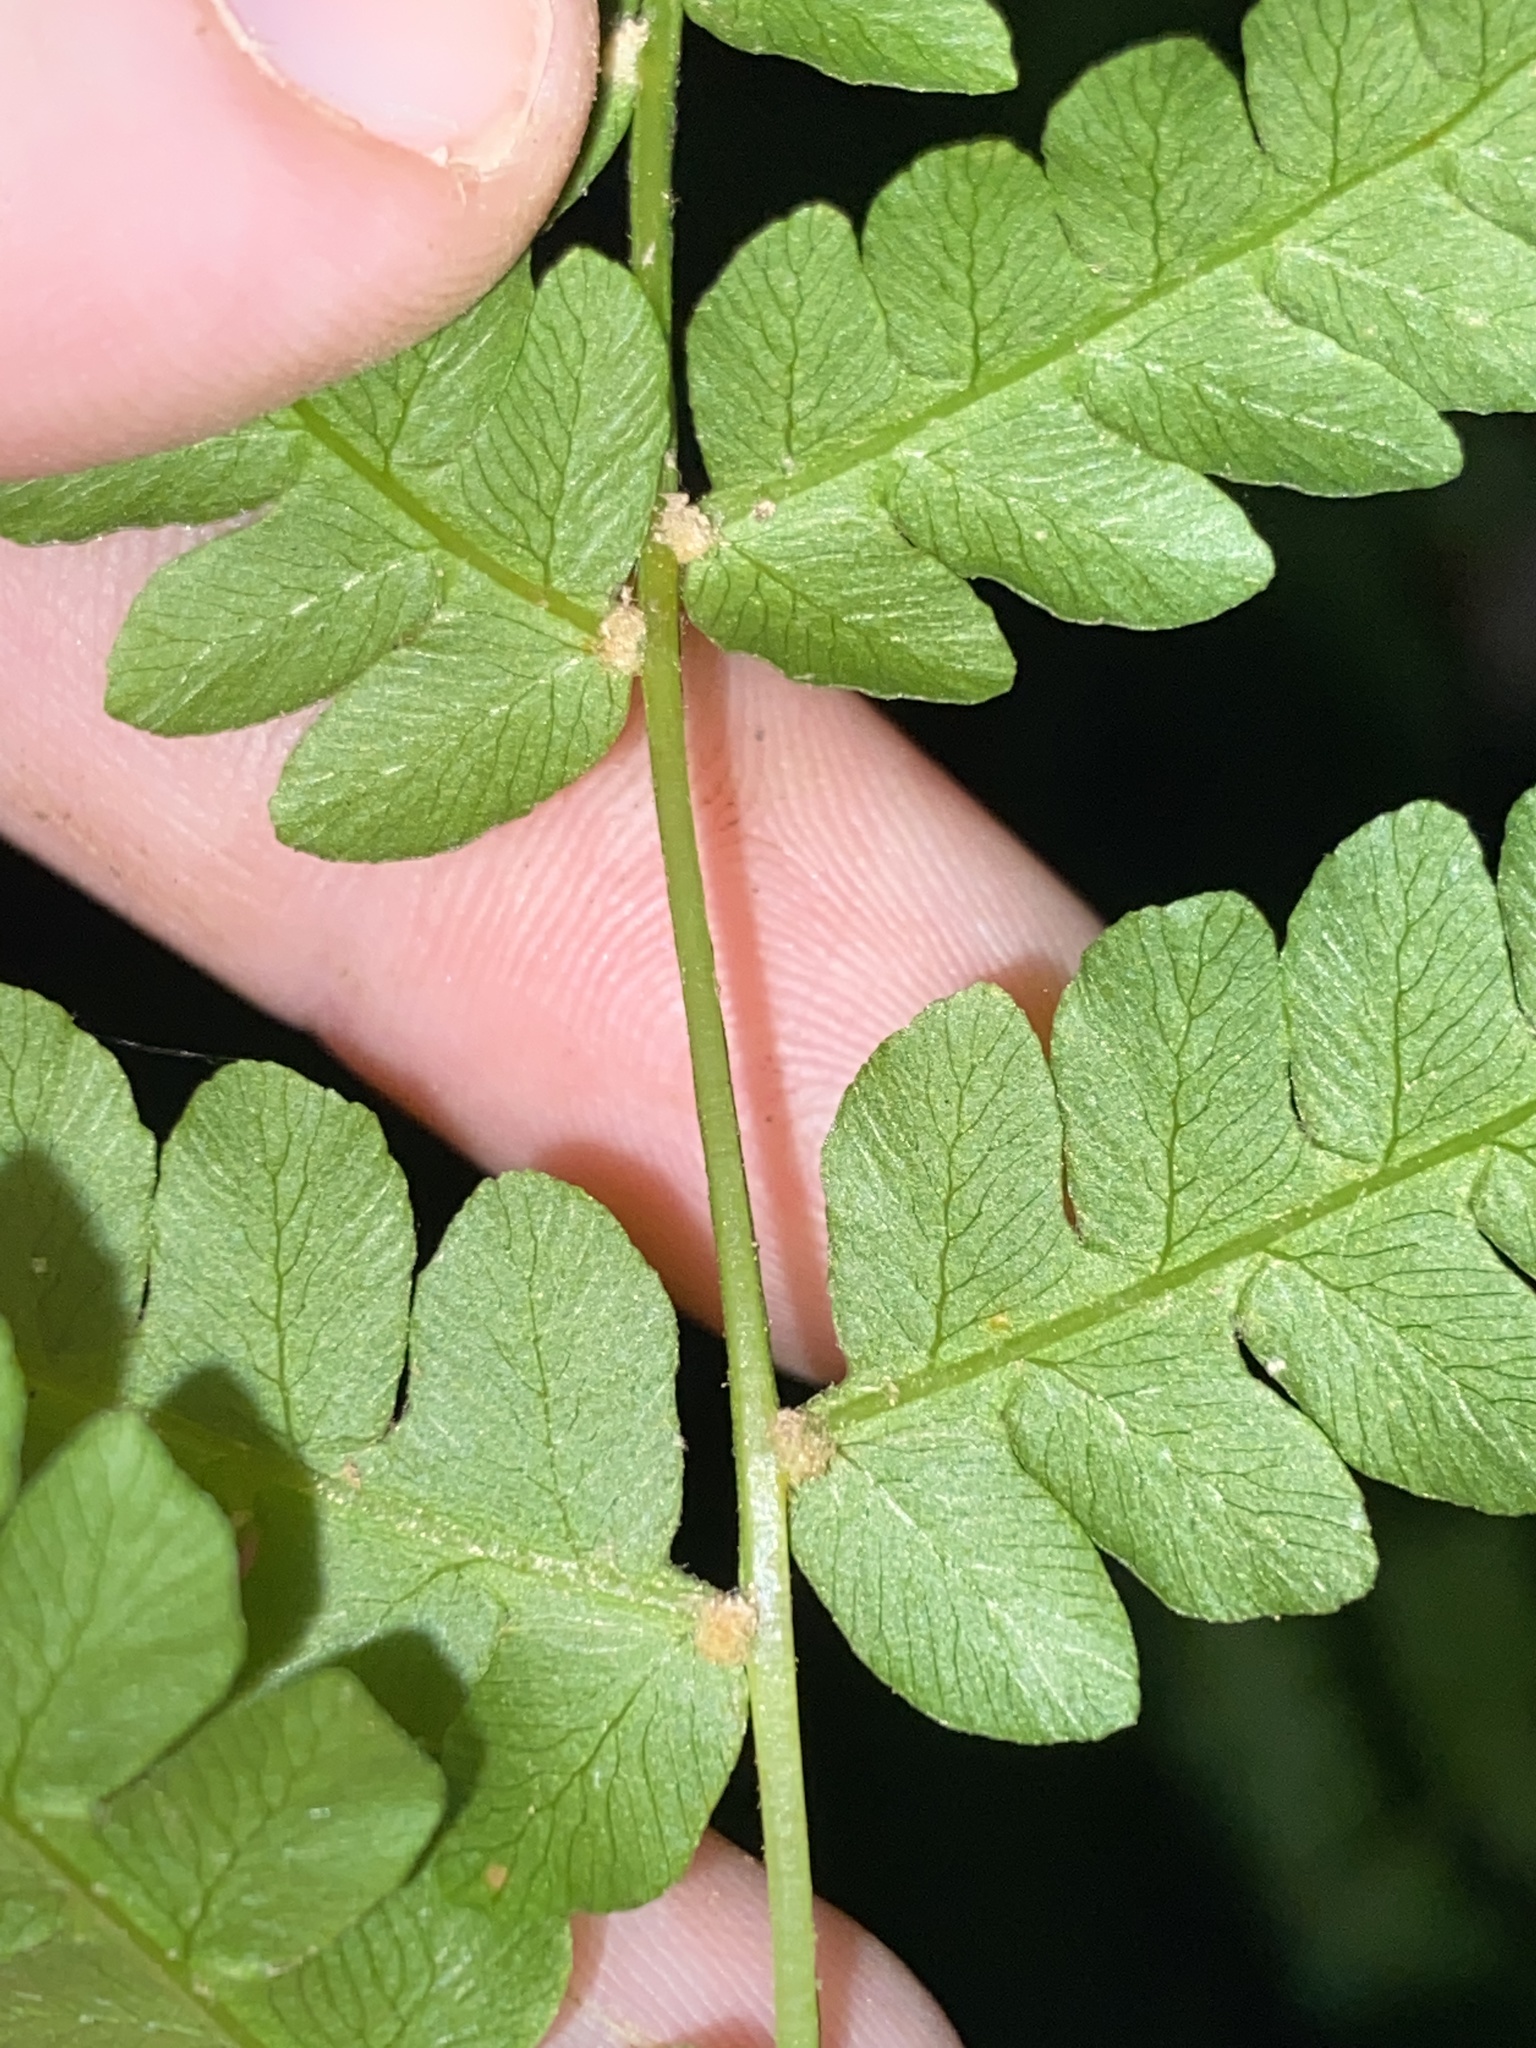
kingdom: Plantae
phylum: Tracheophyta
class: Polypodiopsida
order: Osmundales
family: Osmundaceae
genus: Osmundastrum
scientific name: Osmundastrum cinnamomeum
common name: Cinnamon fern
